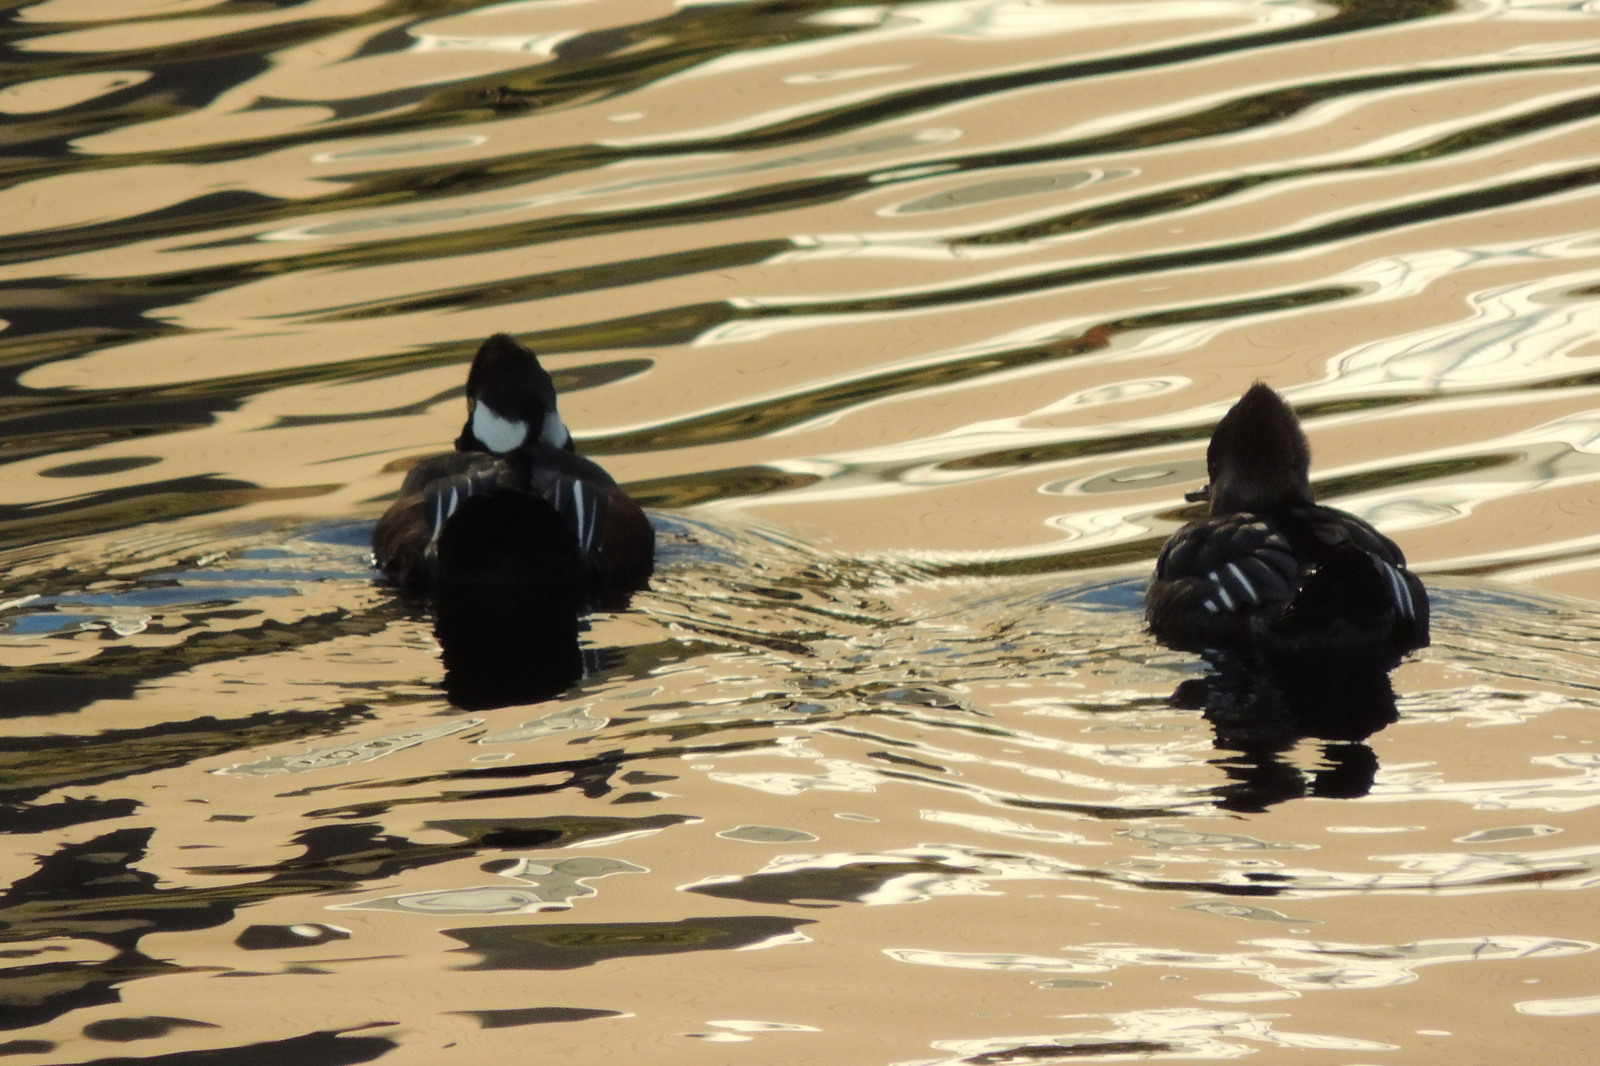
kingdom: Animalia
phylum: Chordata
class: Aves
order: Anseriformes
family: Anatidae
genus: Lophodytes
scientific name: Lophodytes cucullatus
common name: Hooded merganser
